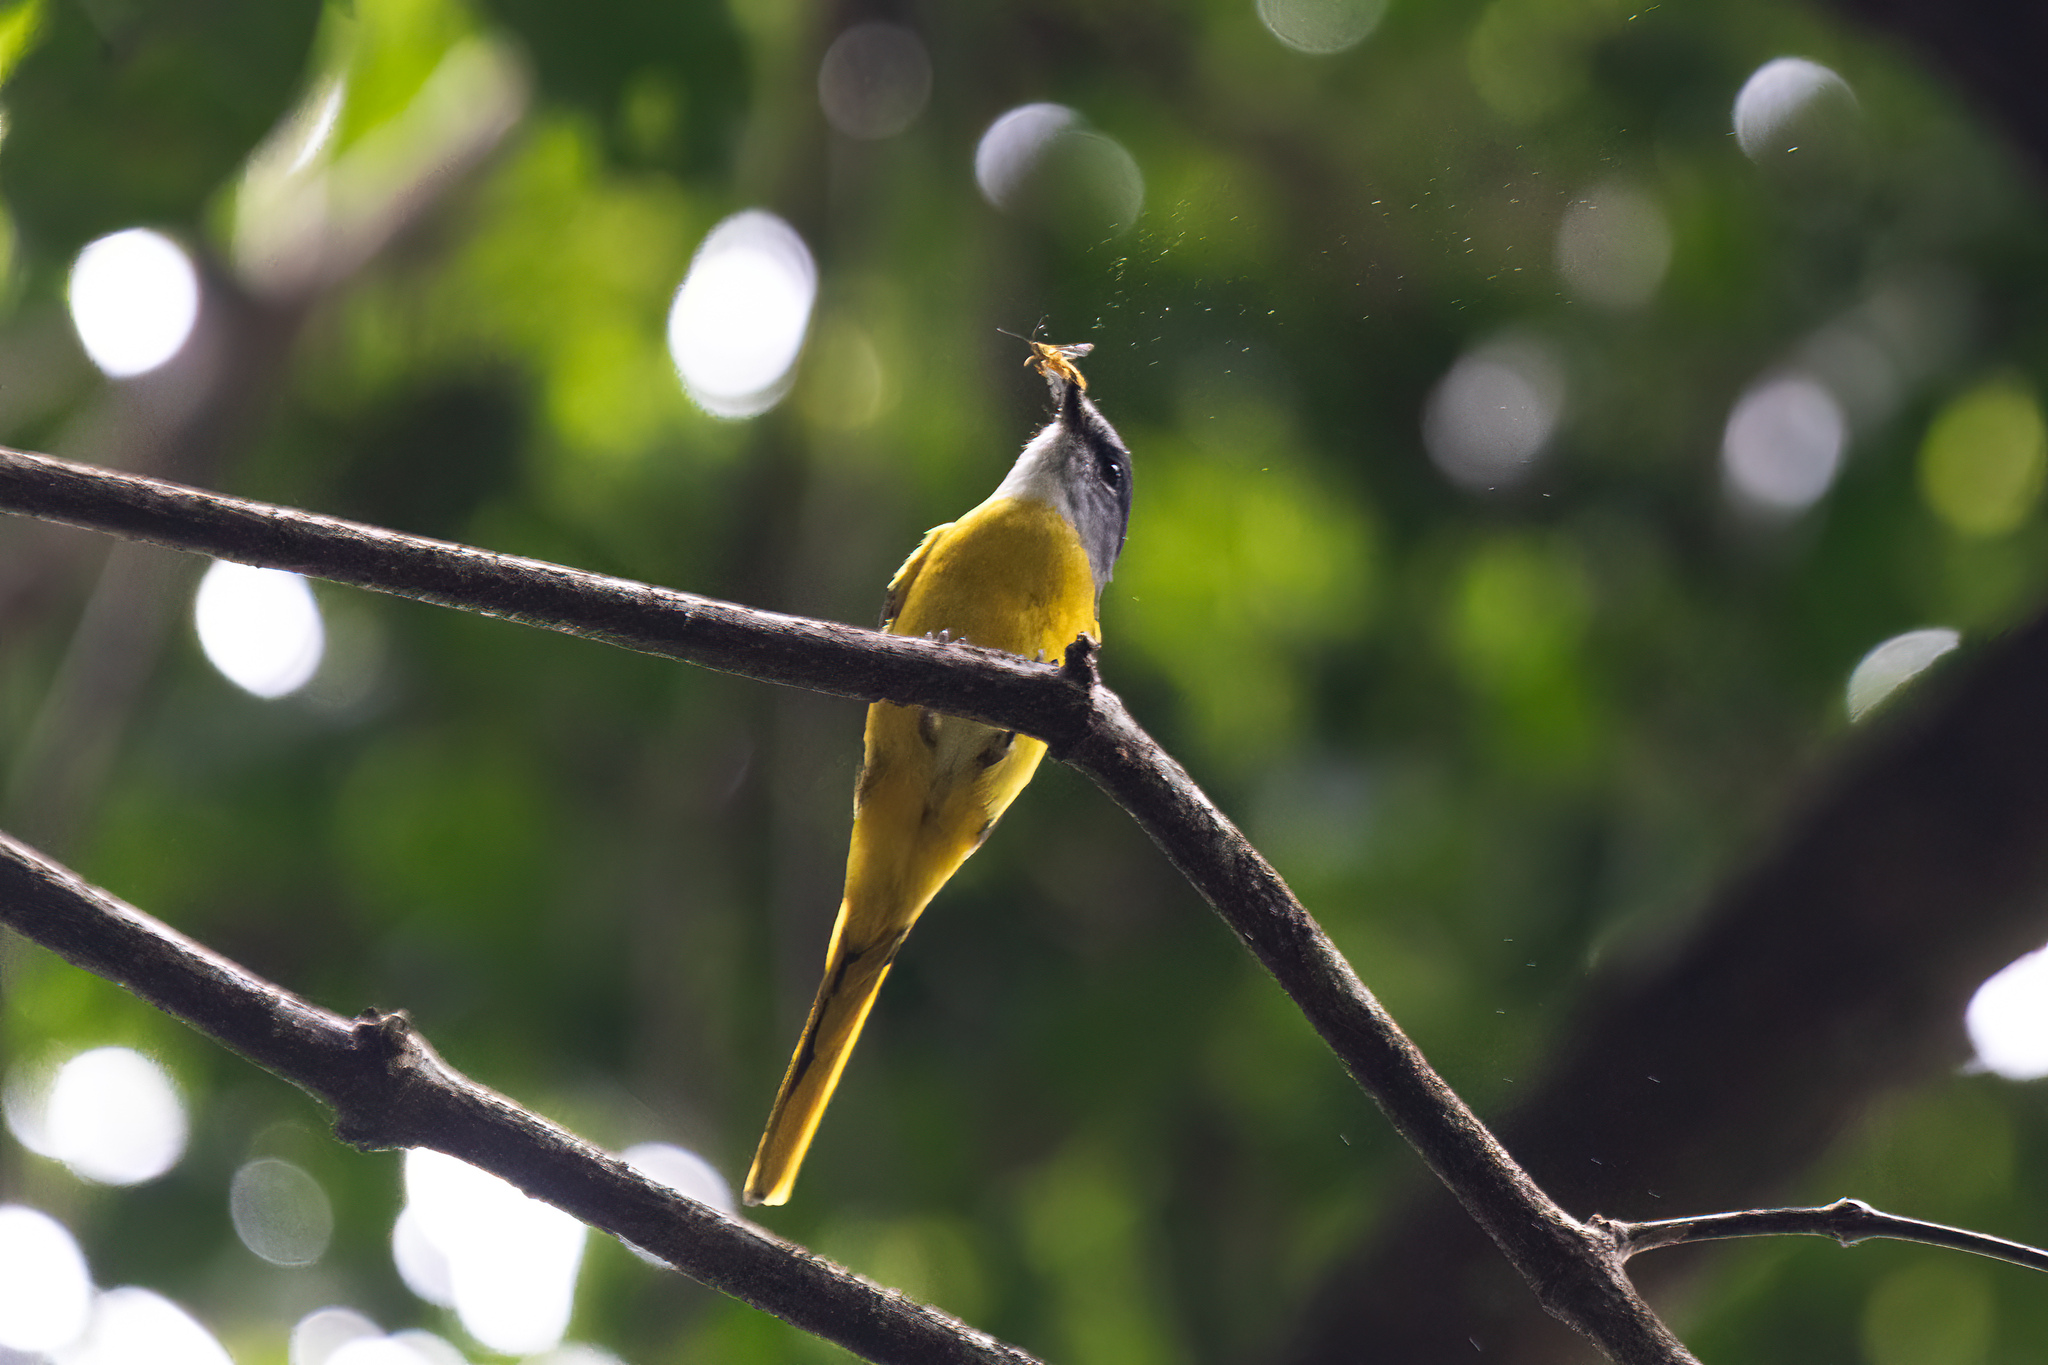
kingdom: Animalia
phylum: Chordata
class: Aves
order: Passeriformes
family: Campephagidae
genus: Pericrocotus
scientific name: Pericrocotus solaris
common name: Grey-chinned minivet
